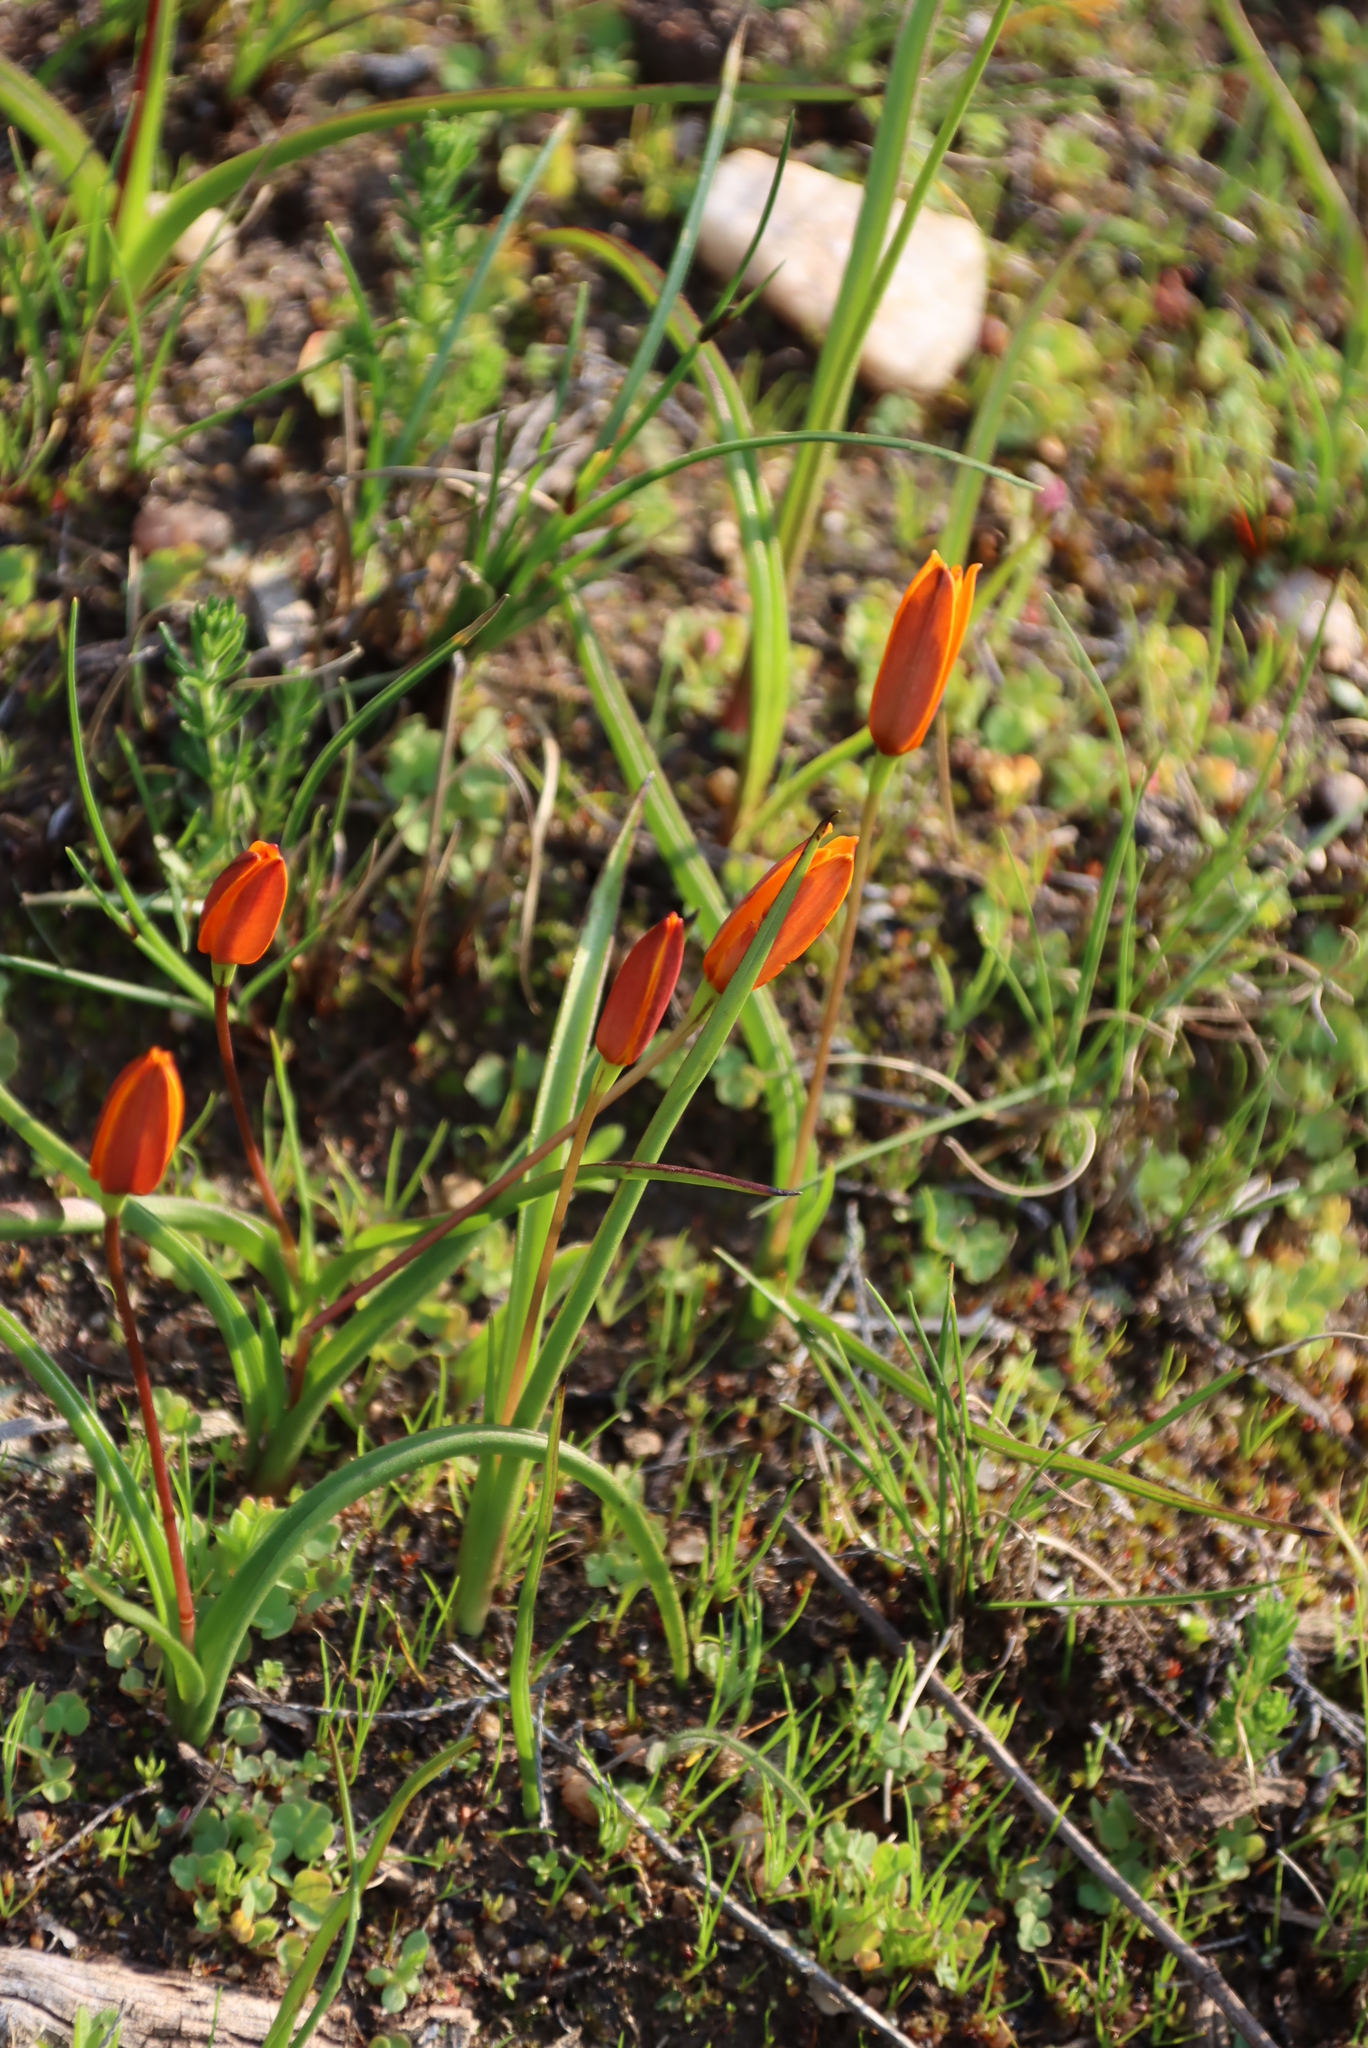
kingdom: Plantae
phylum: Tracheophyta
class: Liliopsida
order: Asparagales
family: Hypoxidaceae
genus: Pauridia
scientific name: Pauridia gracilipes
